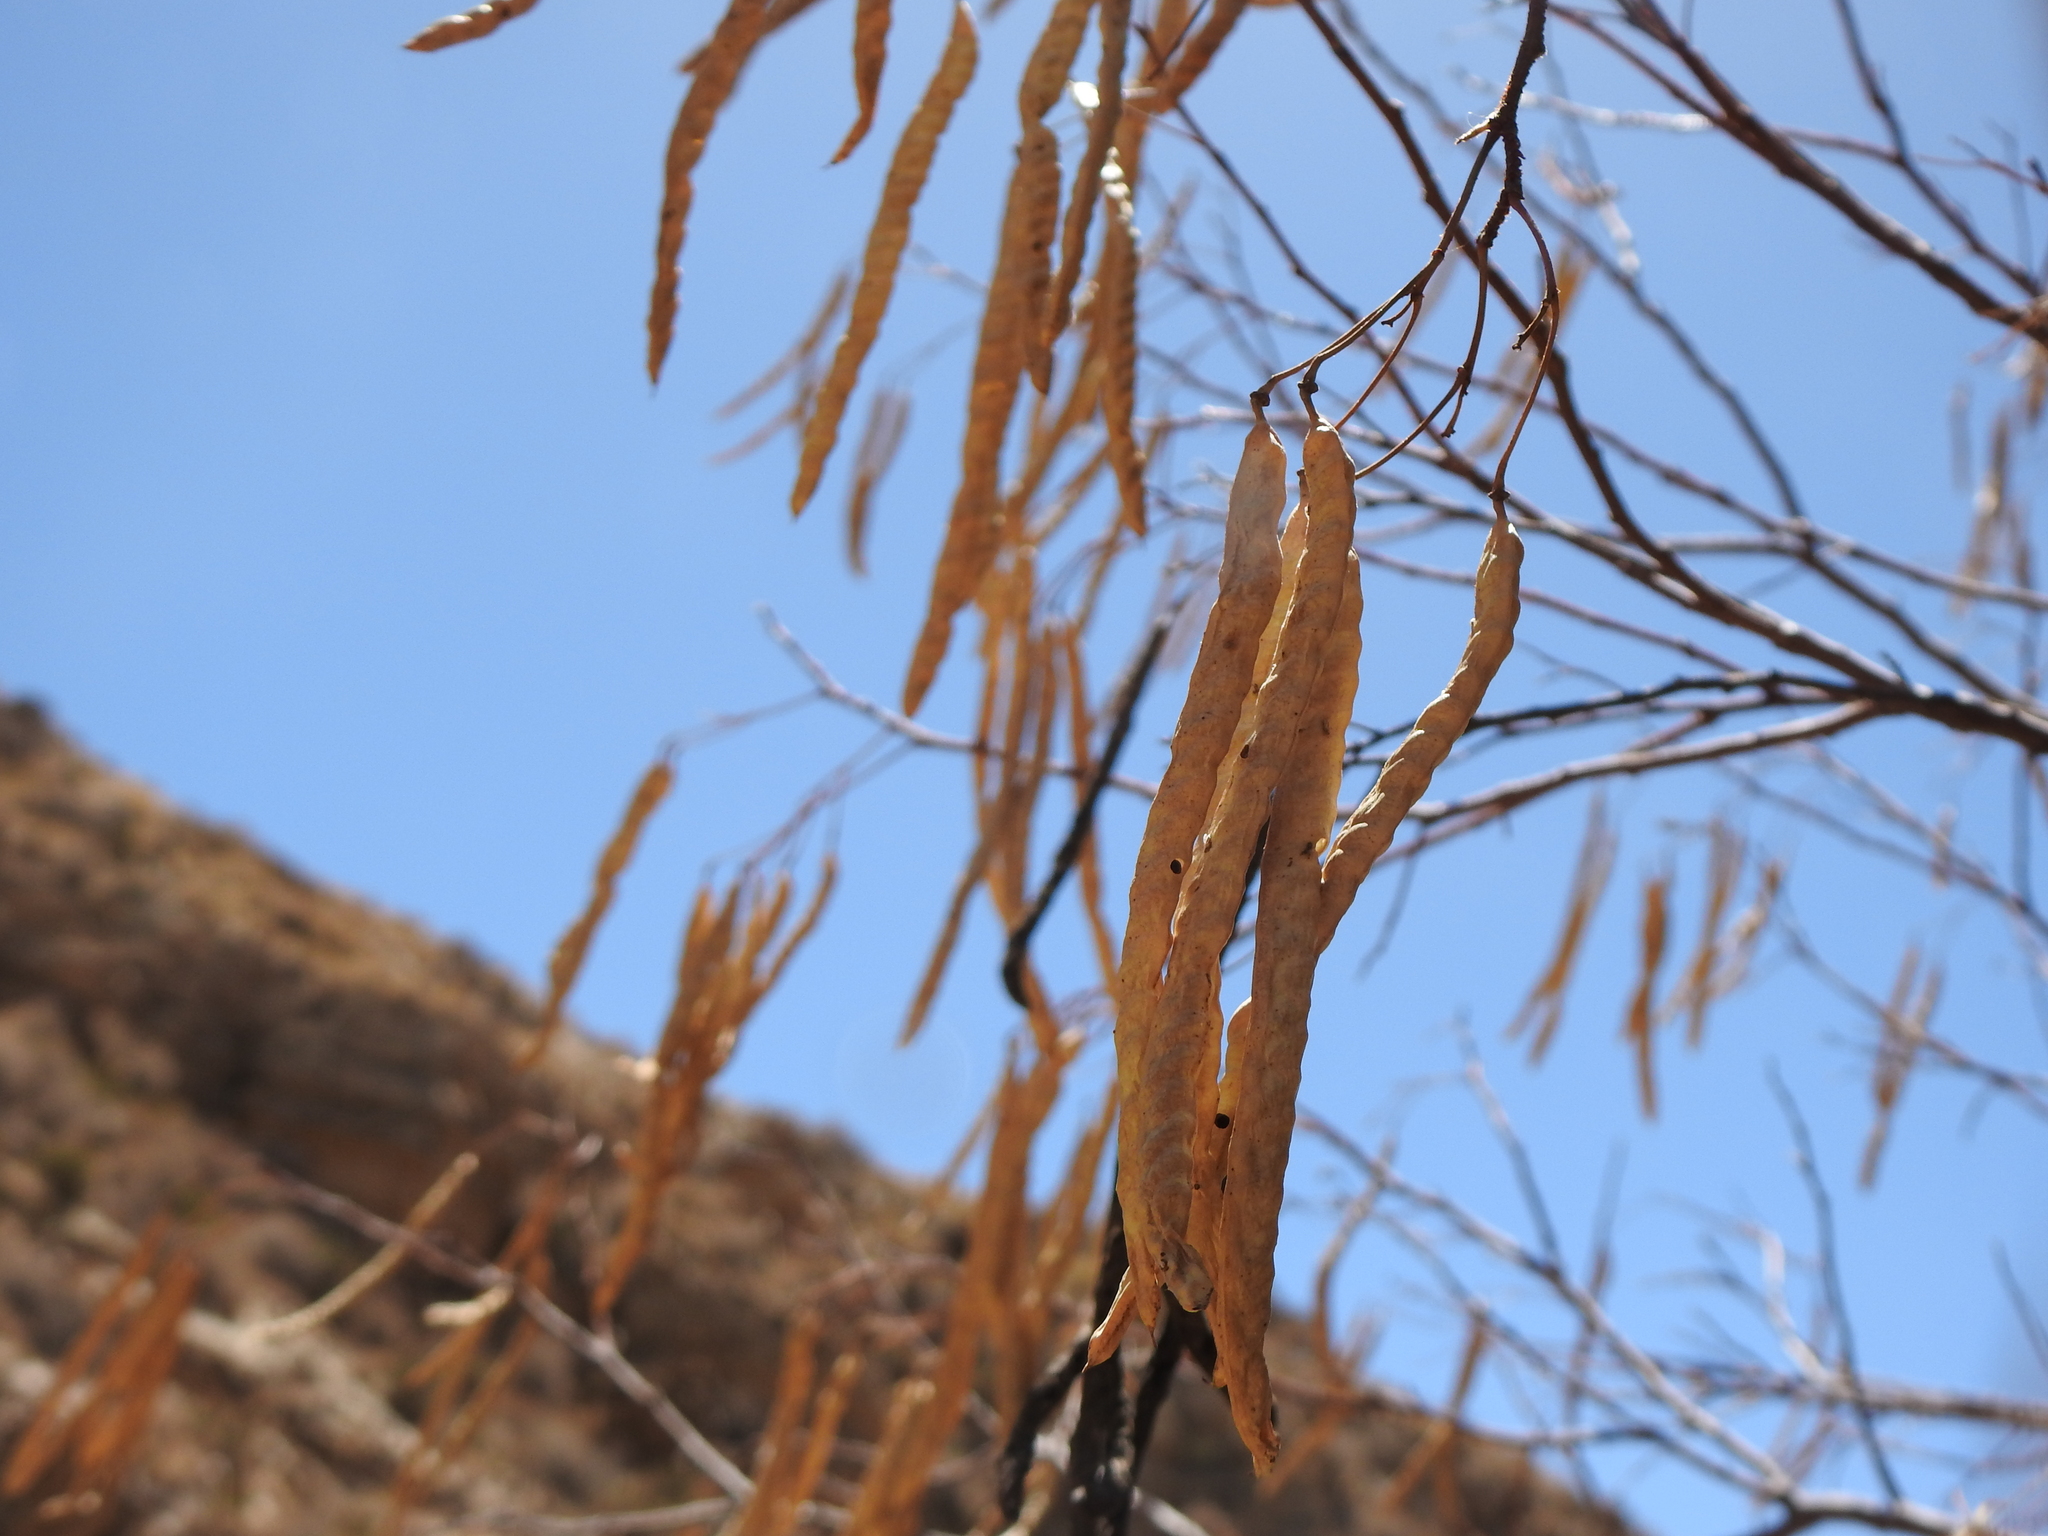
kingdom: Plantae
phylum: Tracheophyta
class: Magnoliopsida
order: Fabales
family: Fabaceae
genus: Prosopis
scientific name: Prosopis alba
